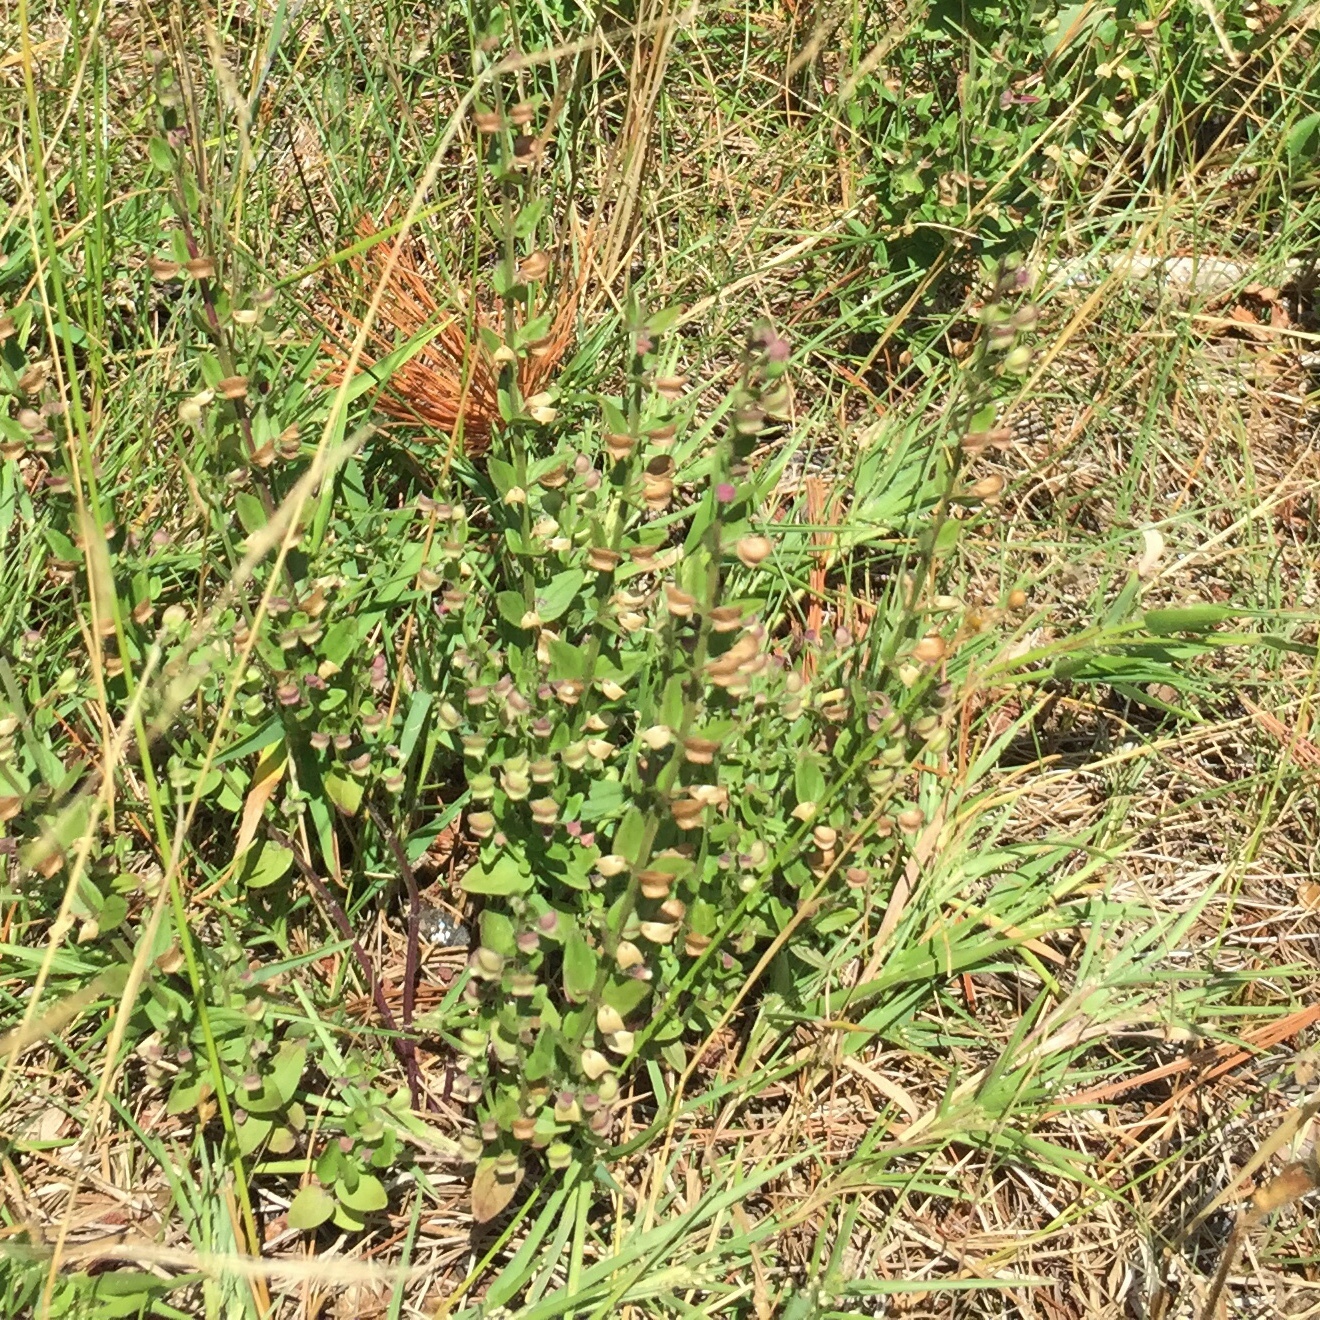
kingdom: Plantae
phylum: Tracheophyta
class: Magnoliopsida
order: Lamiales
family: Lamiaceae
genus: Scutellaria
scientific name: Scutellaria parvula
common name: Little scullcap
